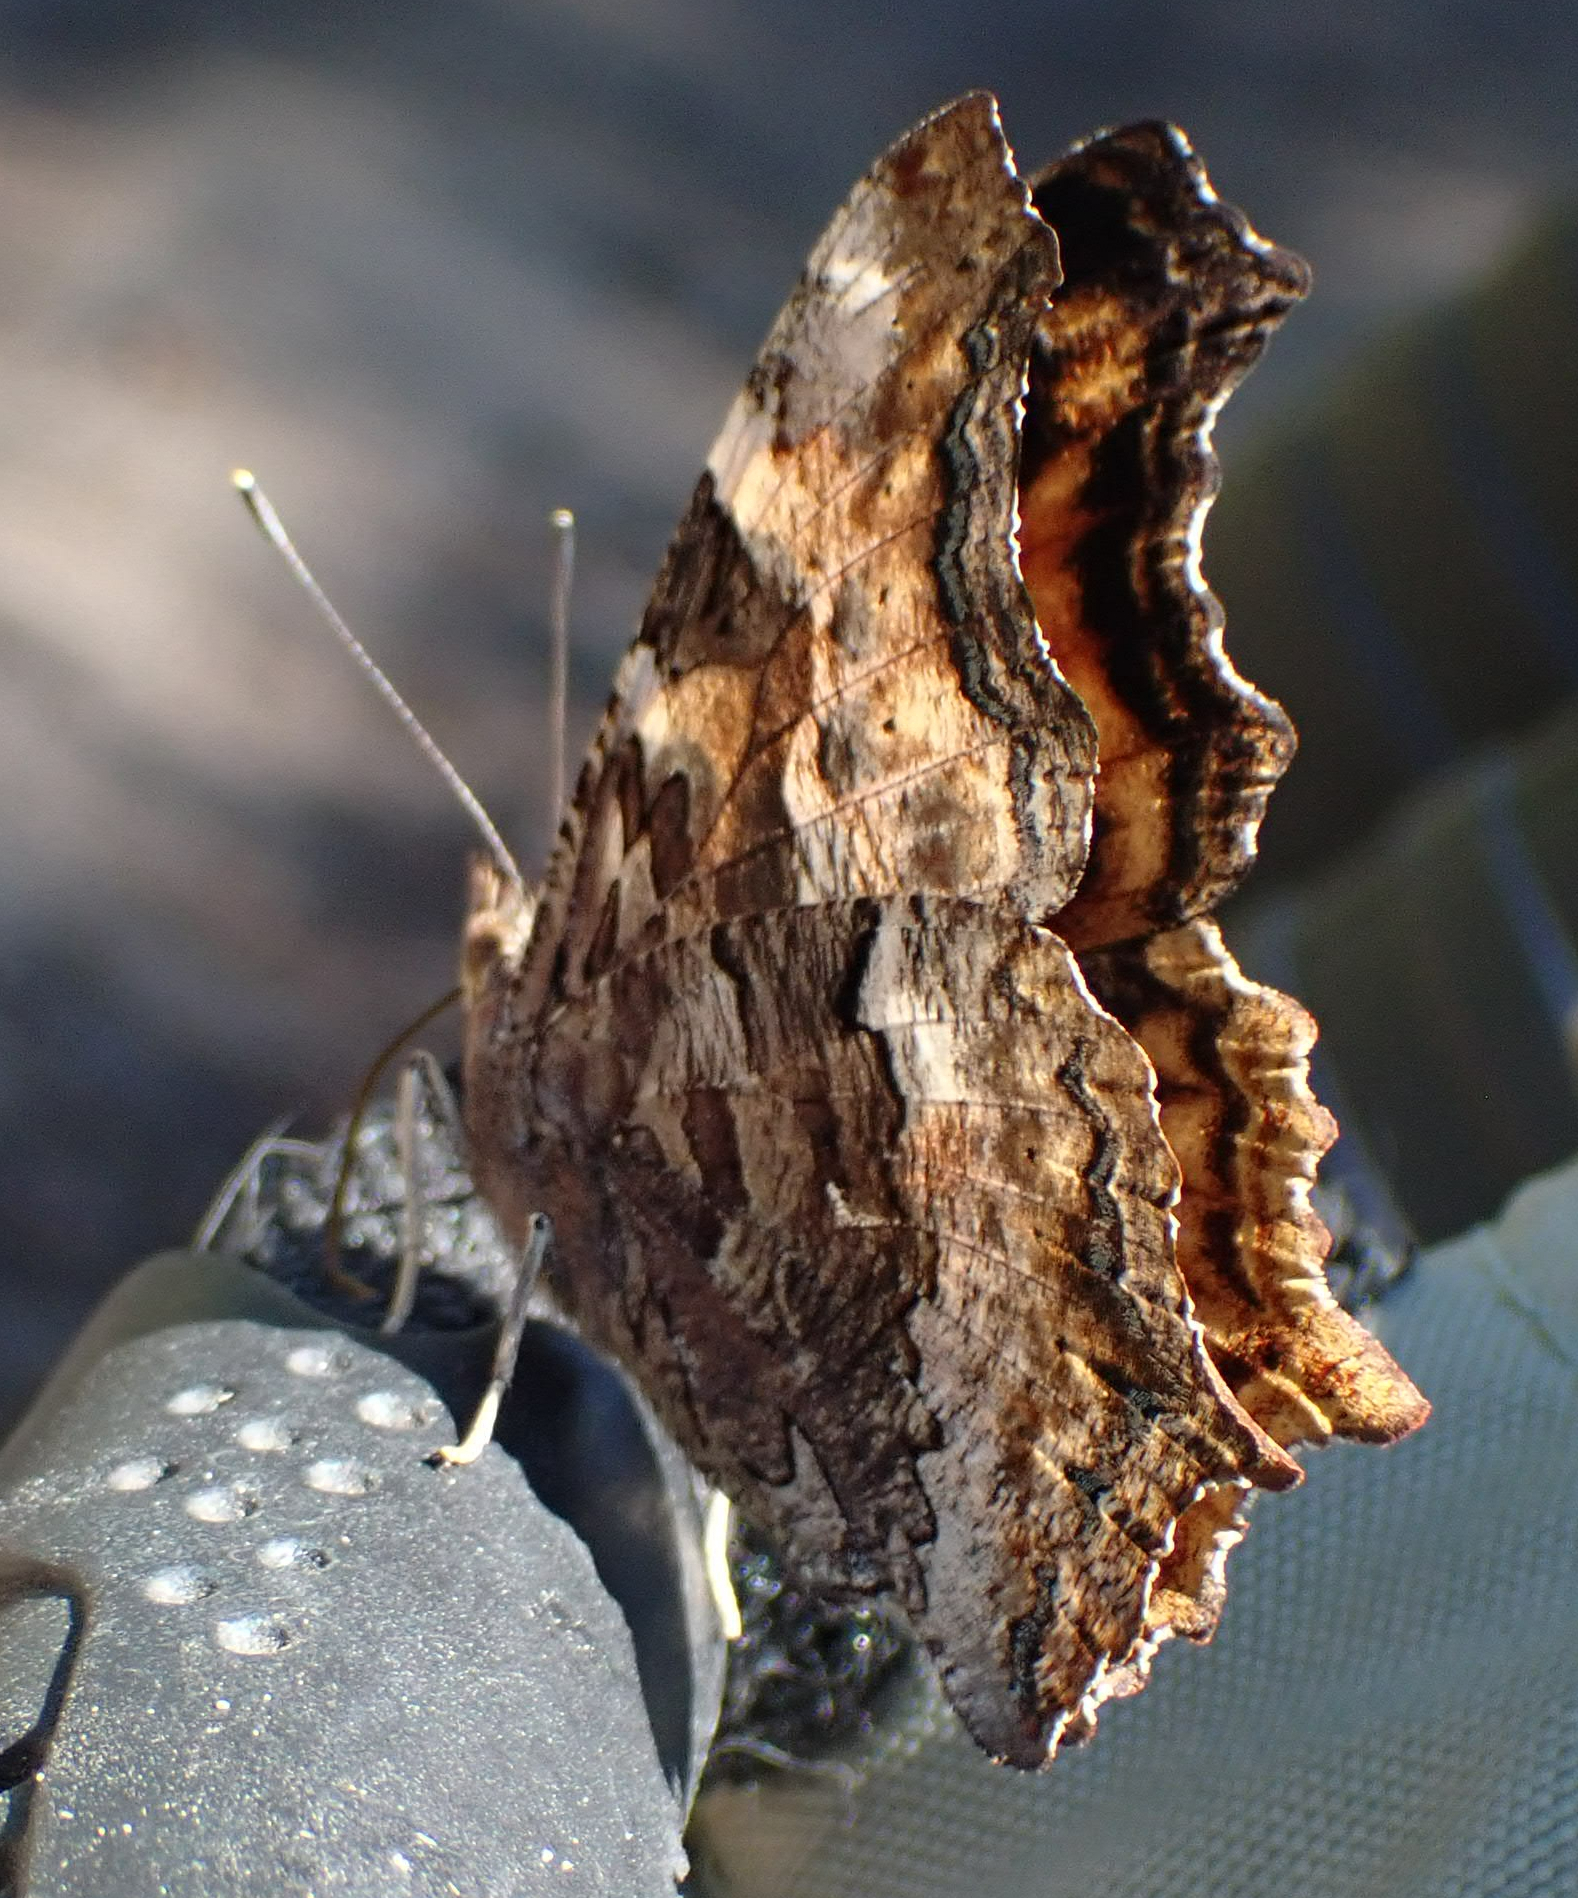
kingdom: Animalia
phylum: Arthropoda
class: Insecta
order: Lepidoptera
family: Nymphalidae
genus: Polygonia
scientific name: Polygonia vaualbum
